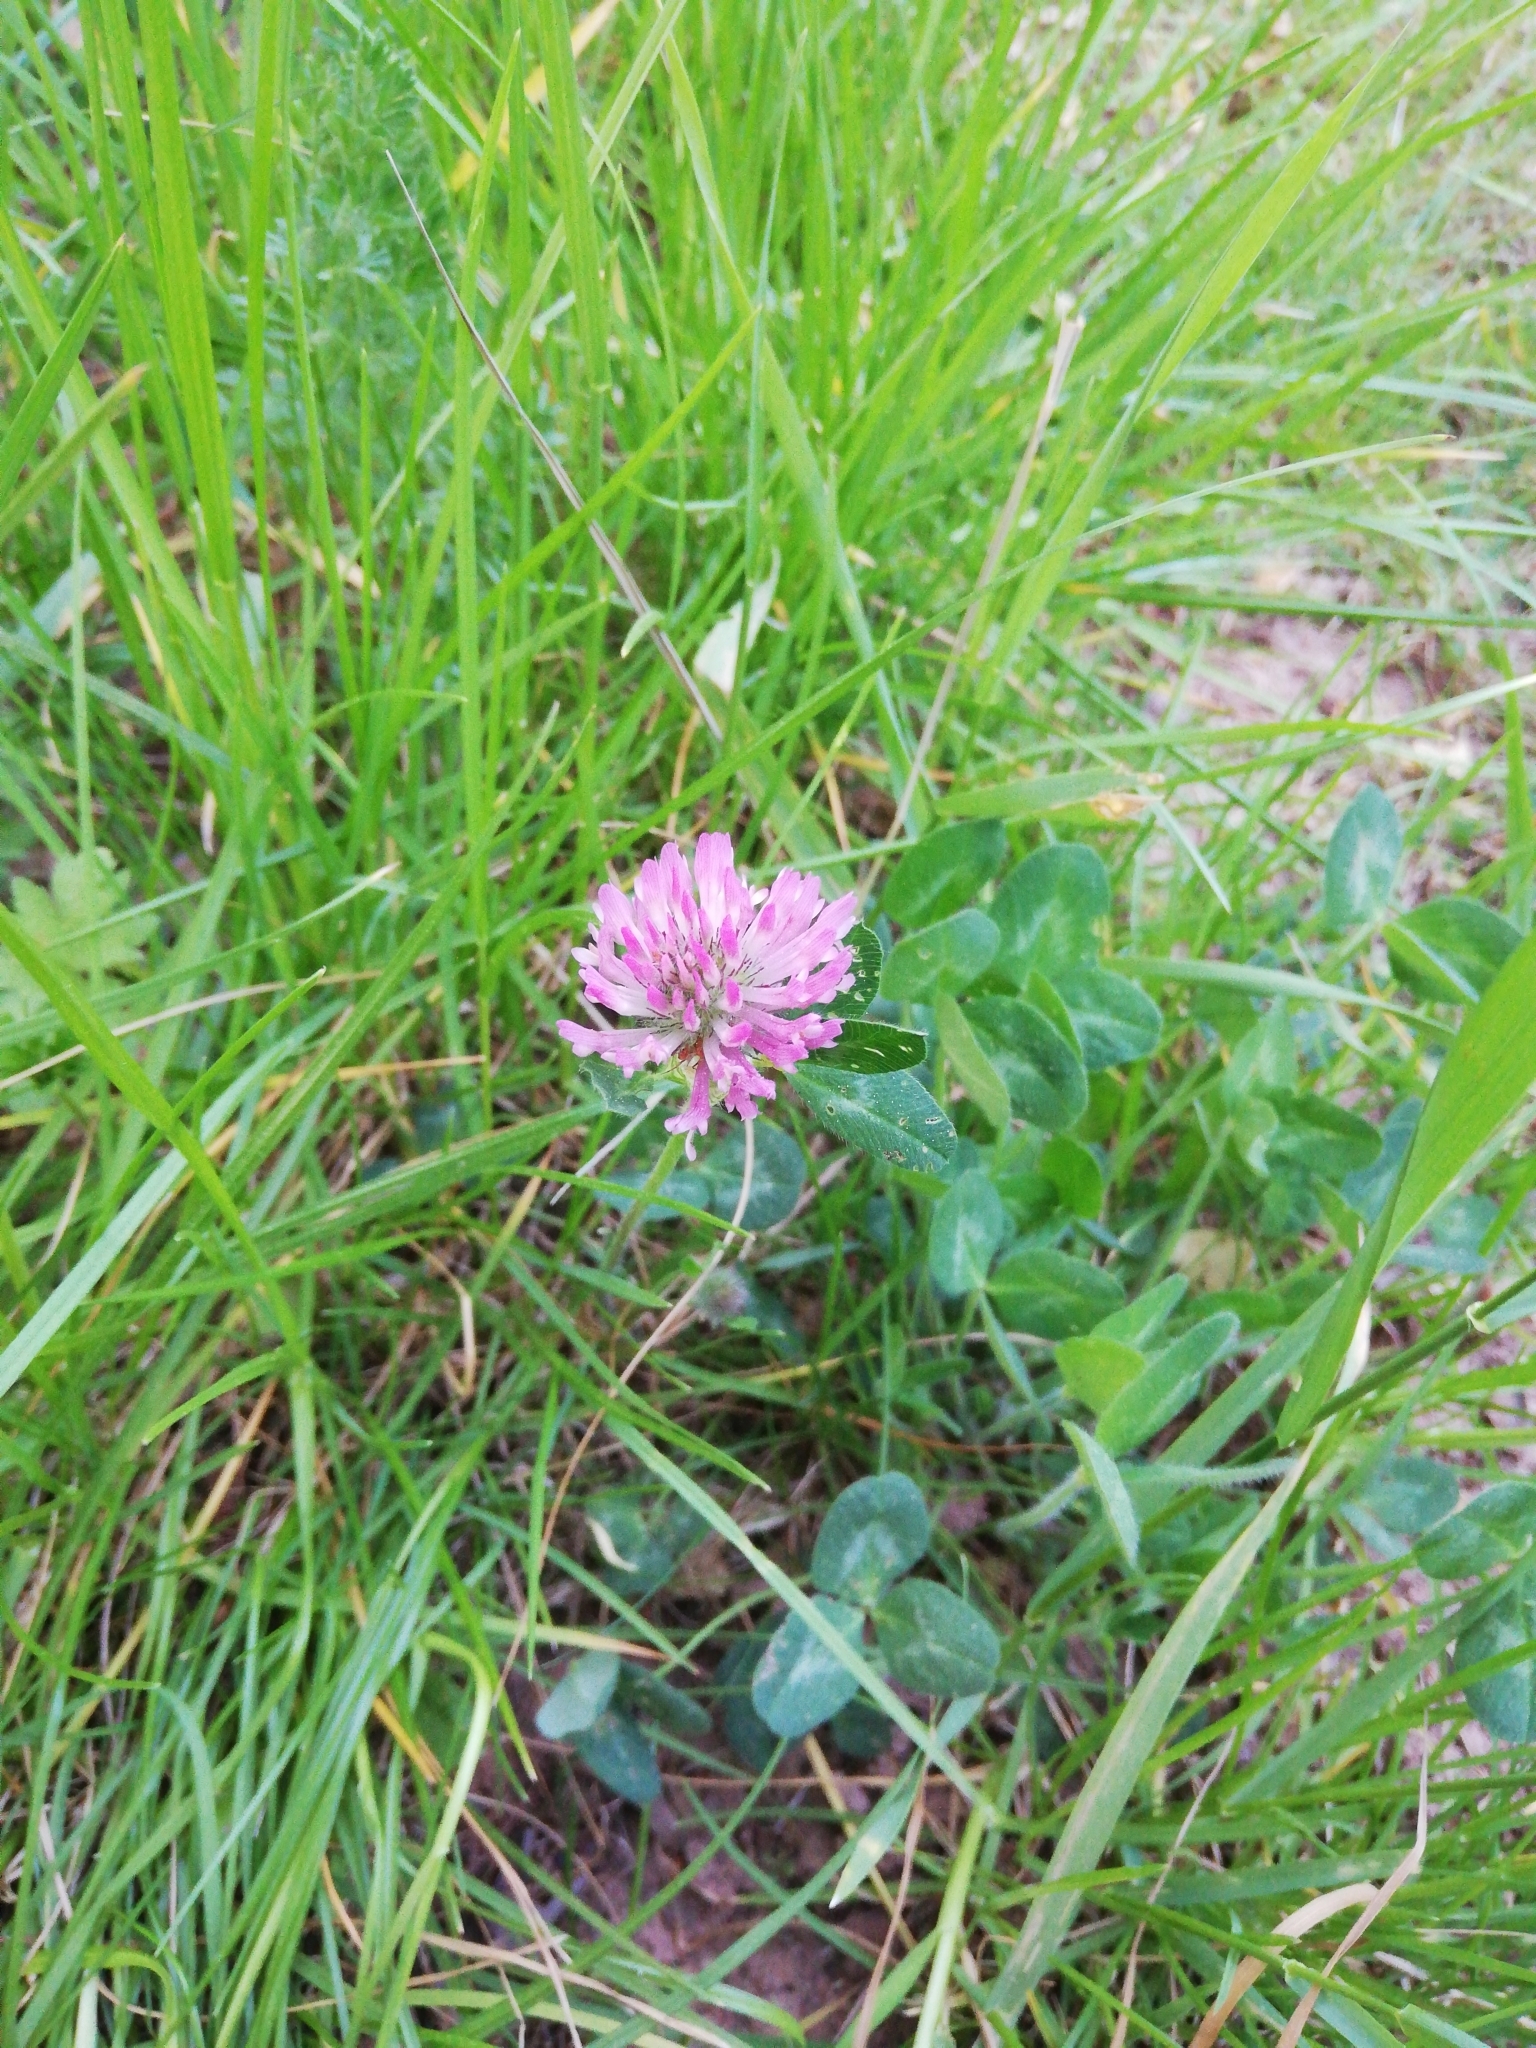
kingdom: Plantae
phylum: Tracheophyta
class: Magnoliopsida
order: Fabales
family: Fabaceae
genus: Trifolium
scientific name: Trifolium pratense
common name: Red clover
